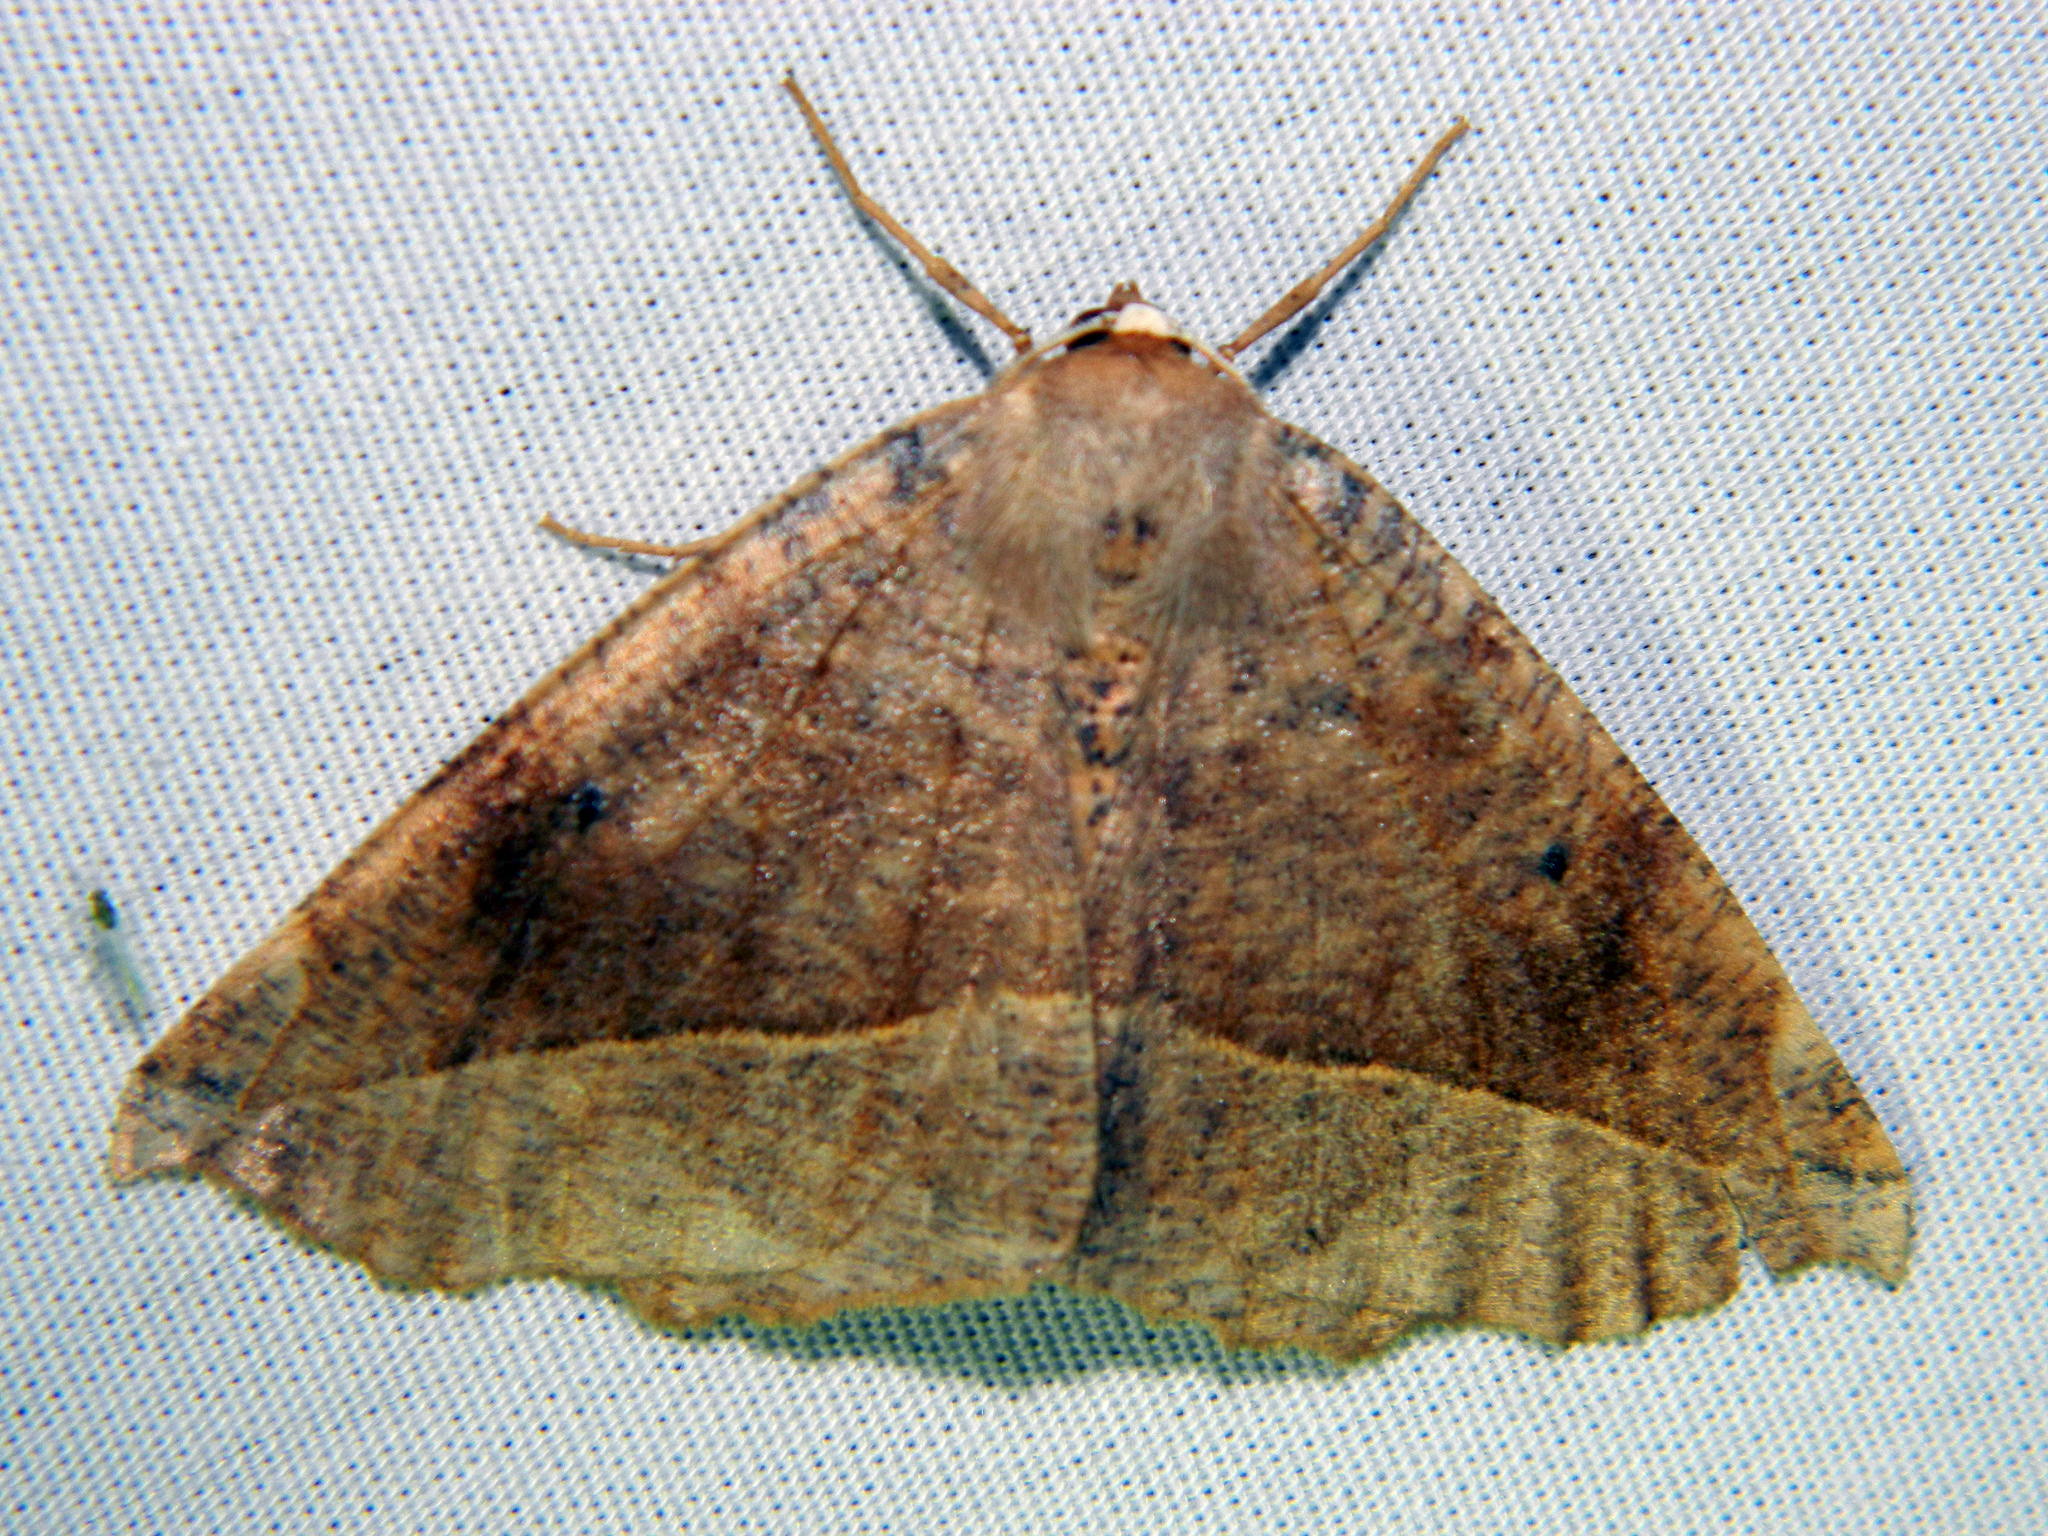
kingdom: Animalia
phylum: Arthropoda
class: Insecta
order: Lepidoptera
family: Geometridae
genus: Eutrapela
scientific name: Eutrapela clemataria
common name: Curved-toothed geometer
